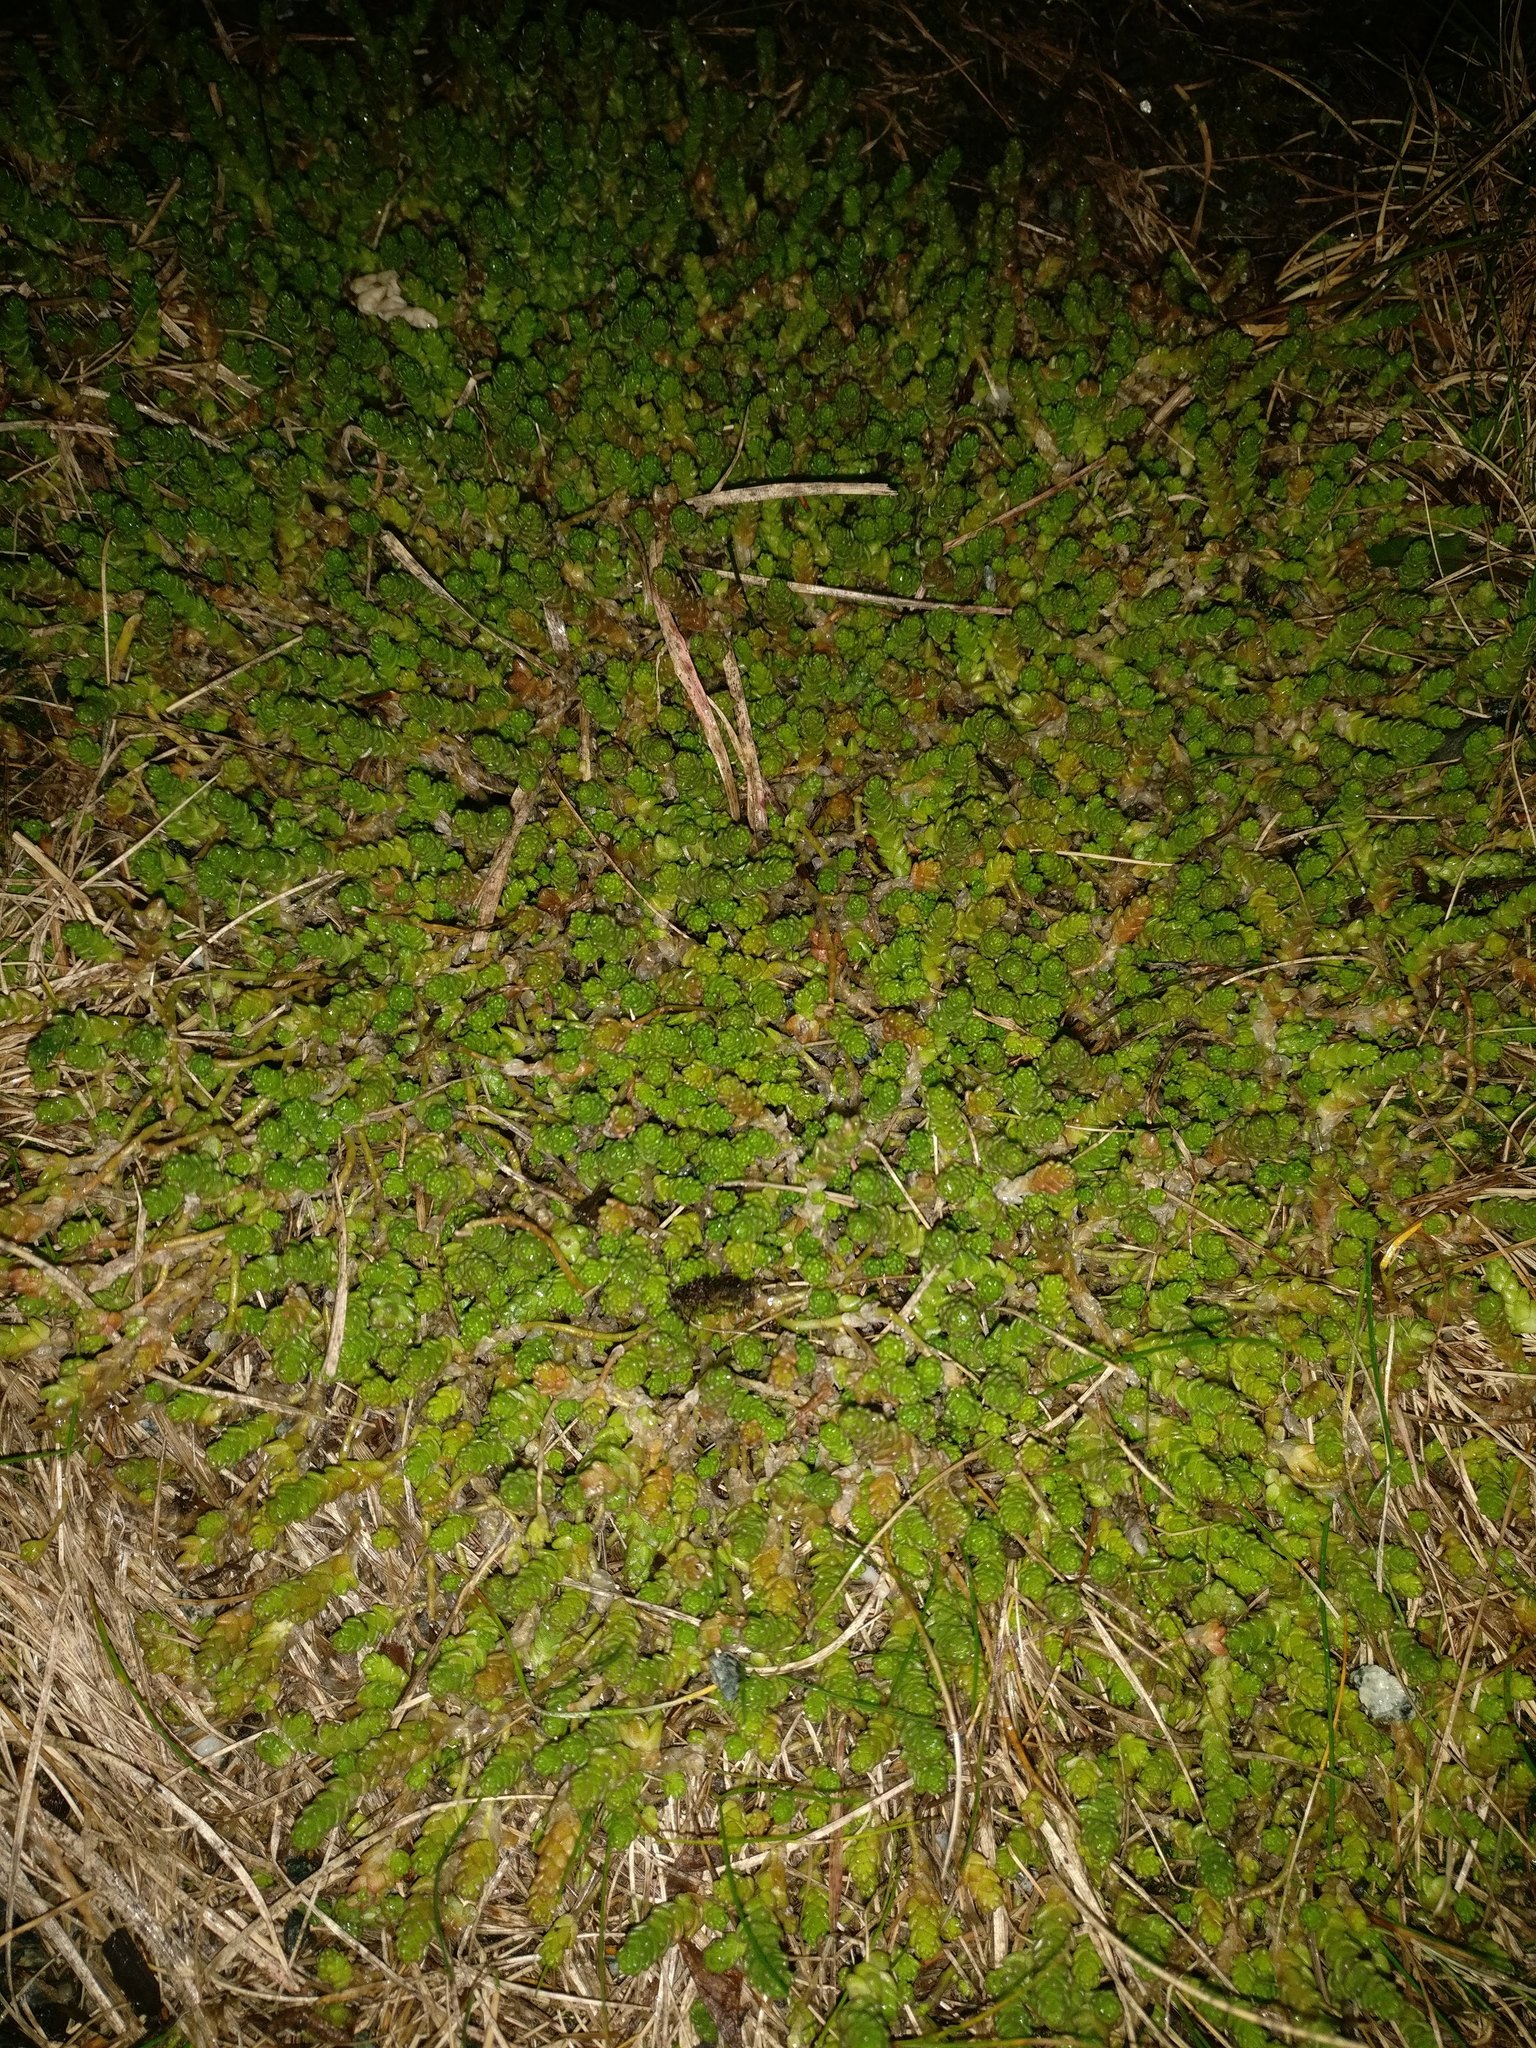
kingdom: Plantae
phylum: Tracheophyta
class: Magnoliopsida
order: Saxifragales
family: Crassulaceae
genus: Sedum
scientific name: Sedum acre
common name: Biting stonecrop
